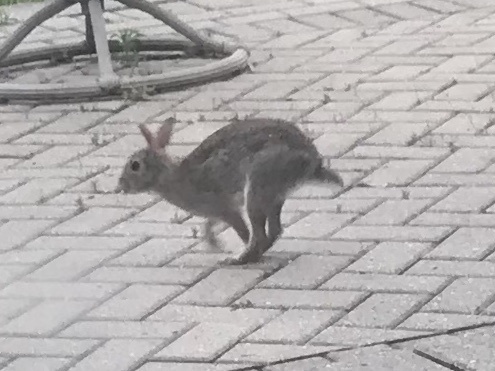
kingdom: Animalia
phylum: Chordata
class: Mammalia
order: Lagomorpha
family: Leporidae
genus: Sylvilagus
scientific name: Sylvilagus floridanus
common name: Eastern cottontail
